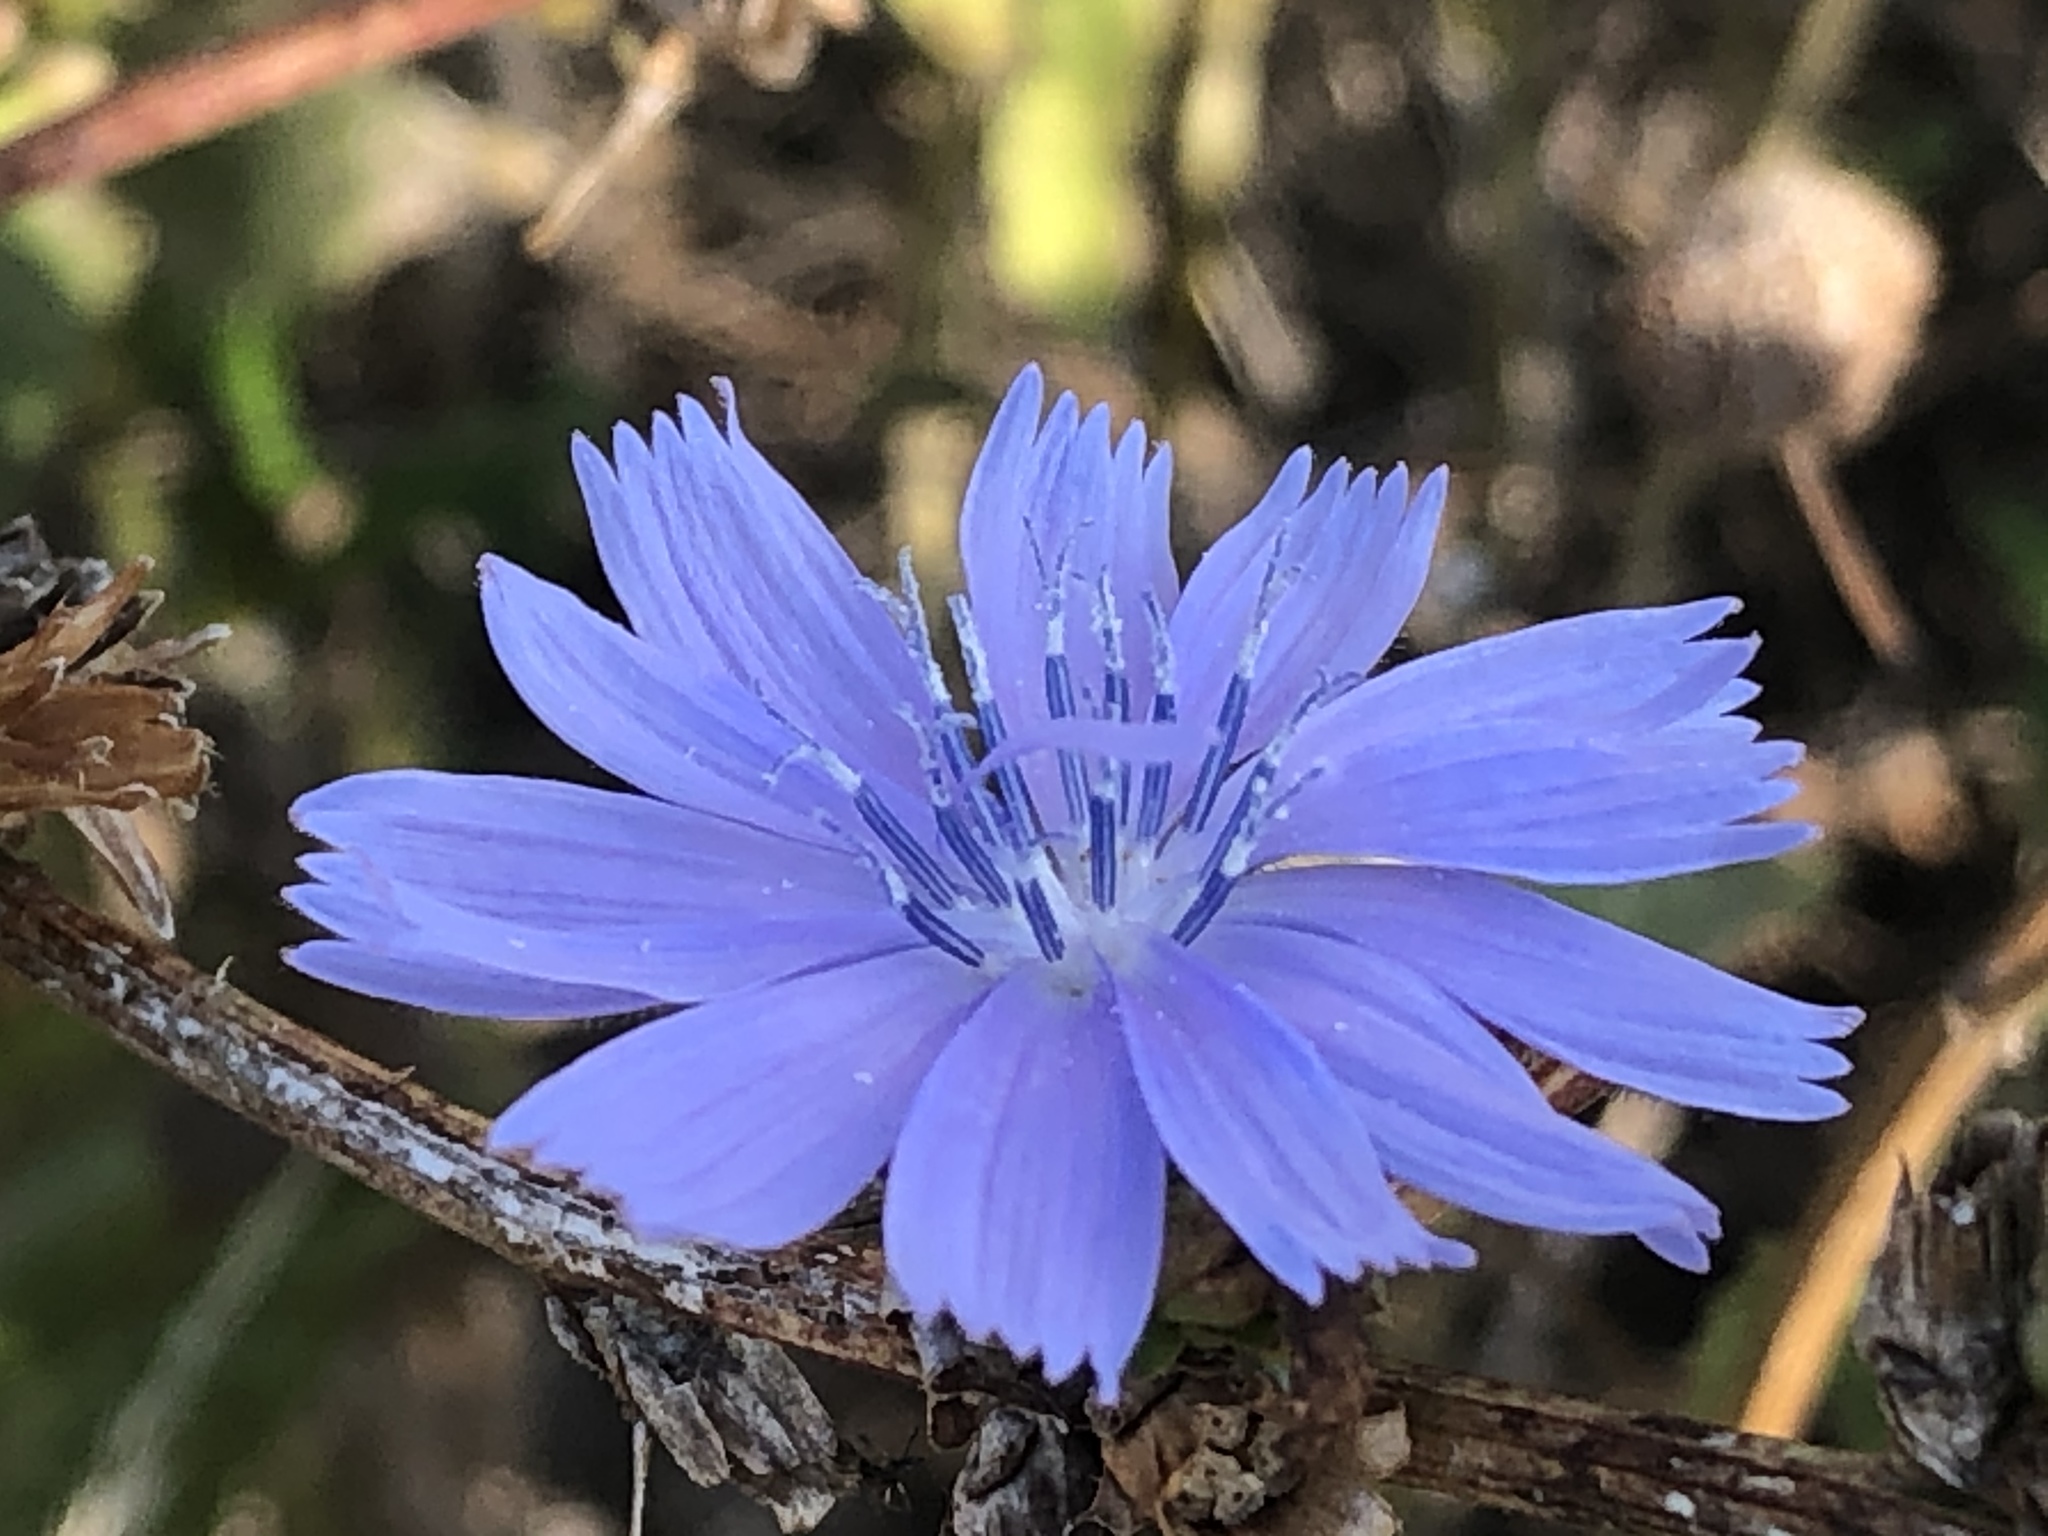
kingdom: Plantae
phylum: Tracheophyta
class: Magnoliopsida
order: Asterales
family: Asteraceae
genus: Cichorium
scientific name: Cichorium intybus
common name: Chicory
